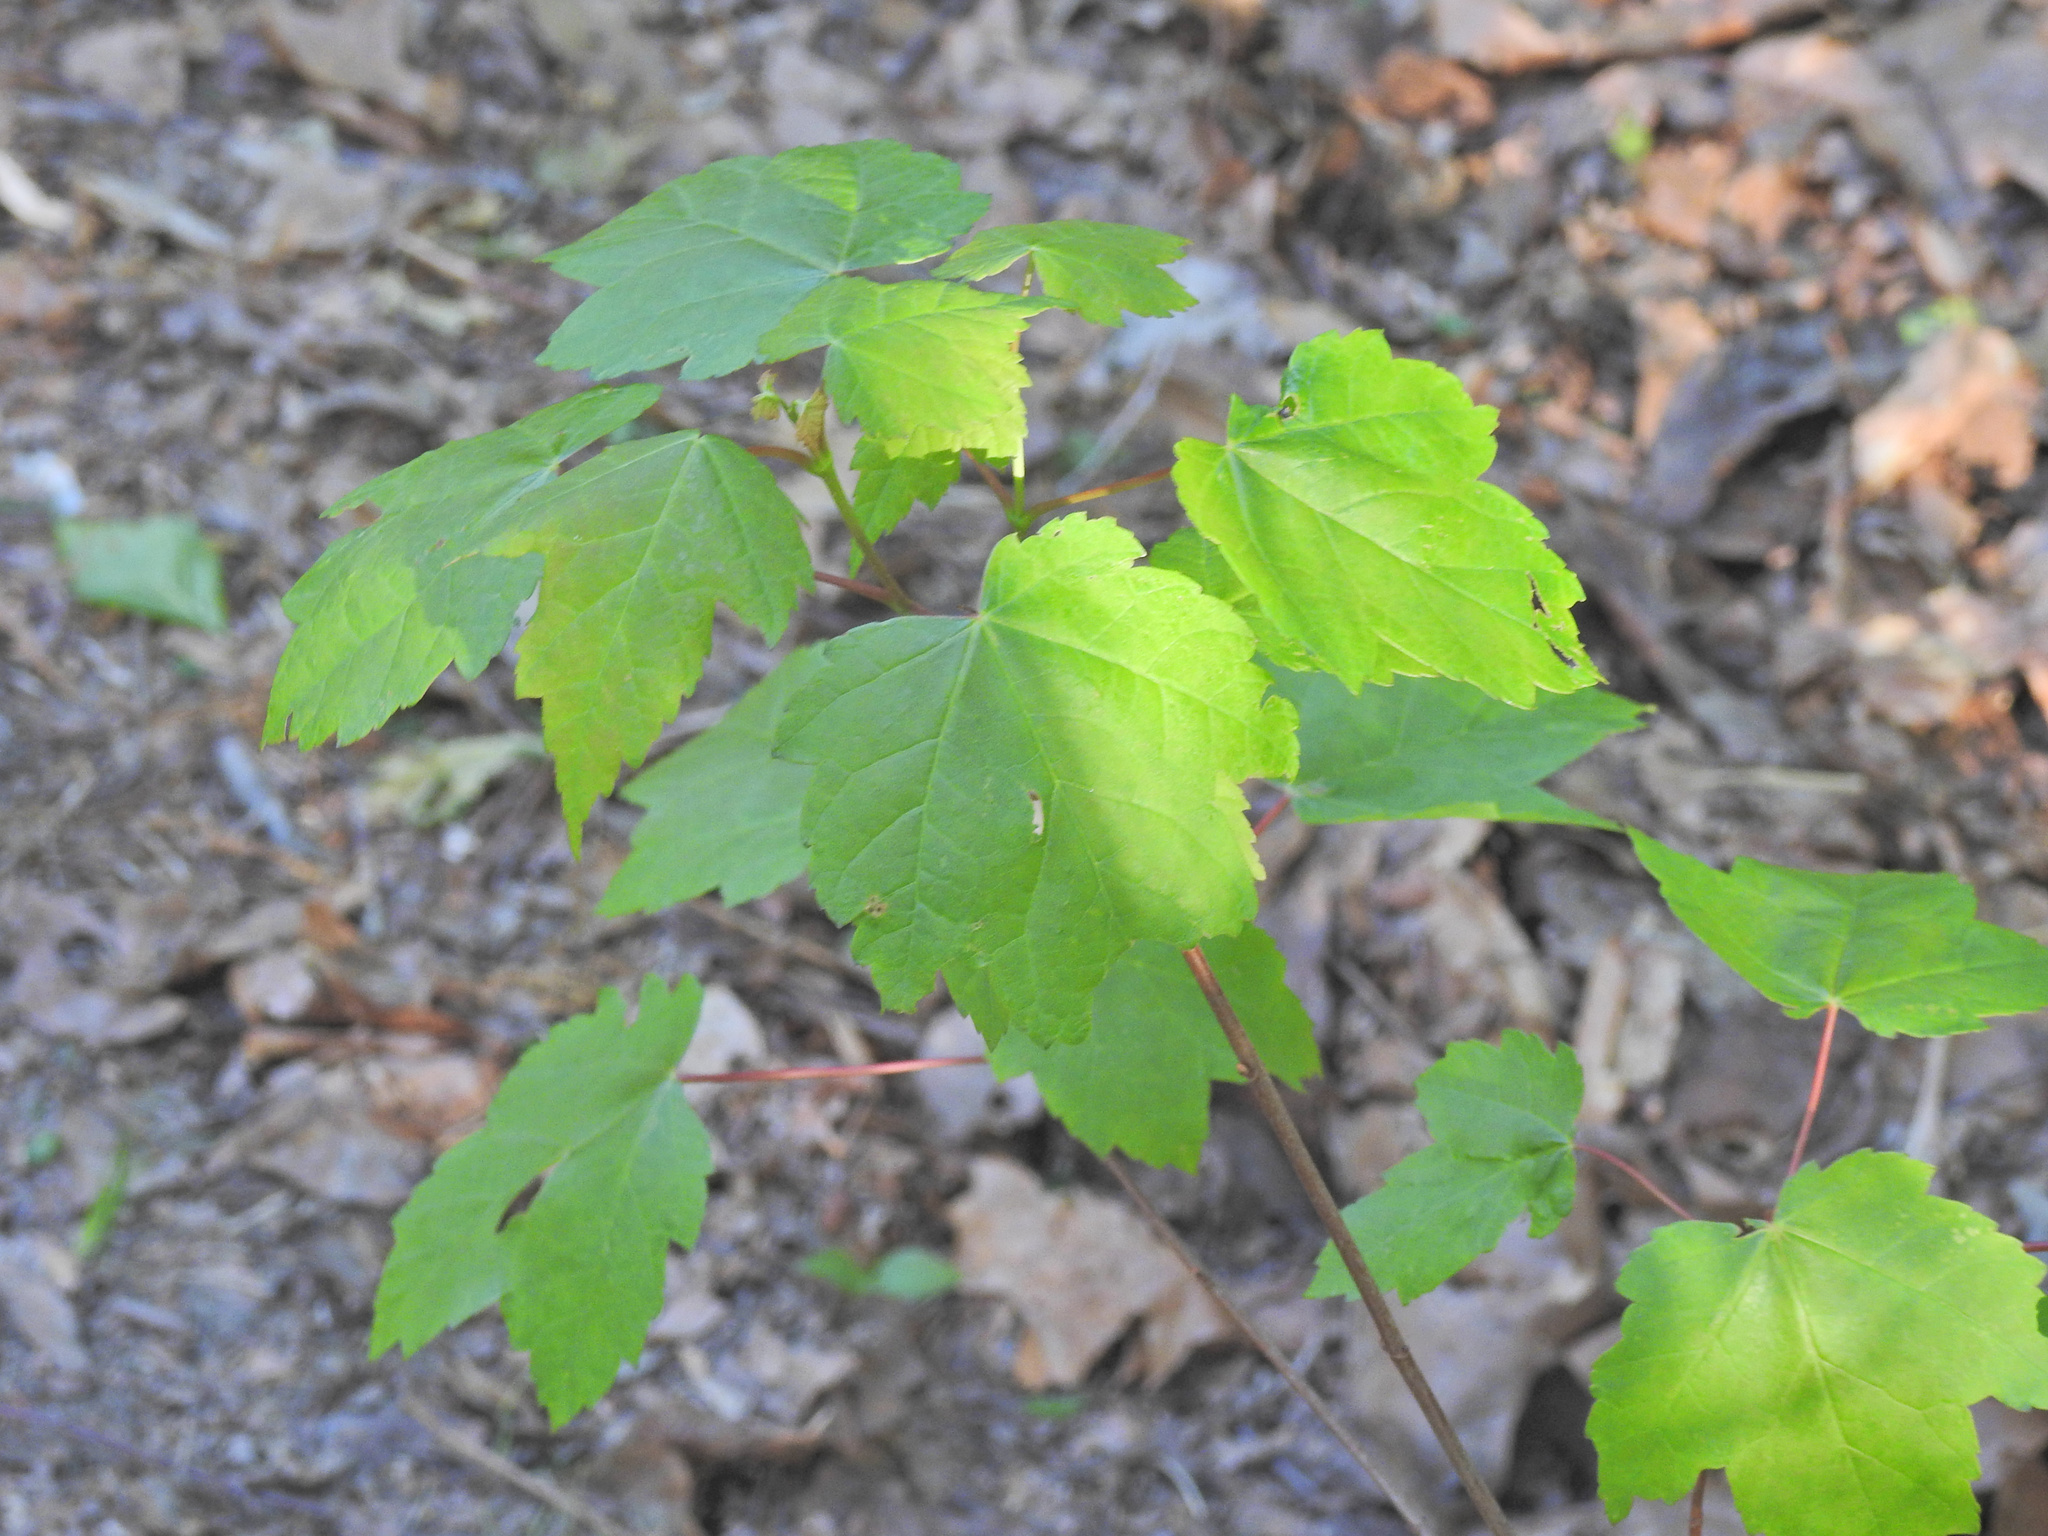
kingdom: Plantae
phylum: Tracheophyta
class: Magnoliopsida
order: Sapindales
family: Sapindaceae
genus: Acer
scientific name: Acer rubrum
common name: Red maple
